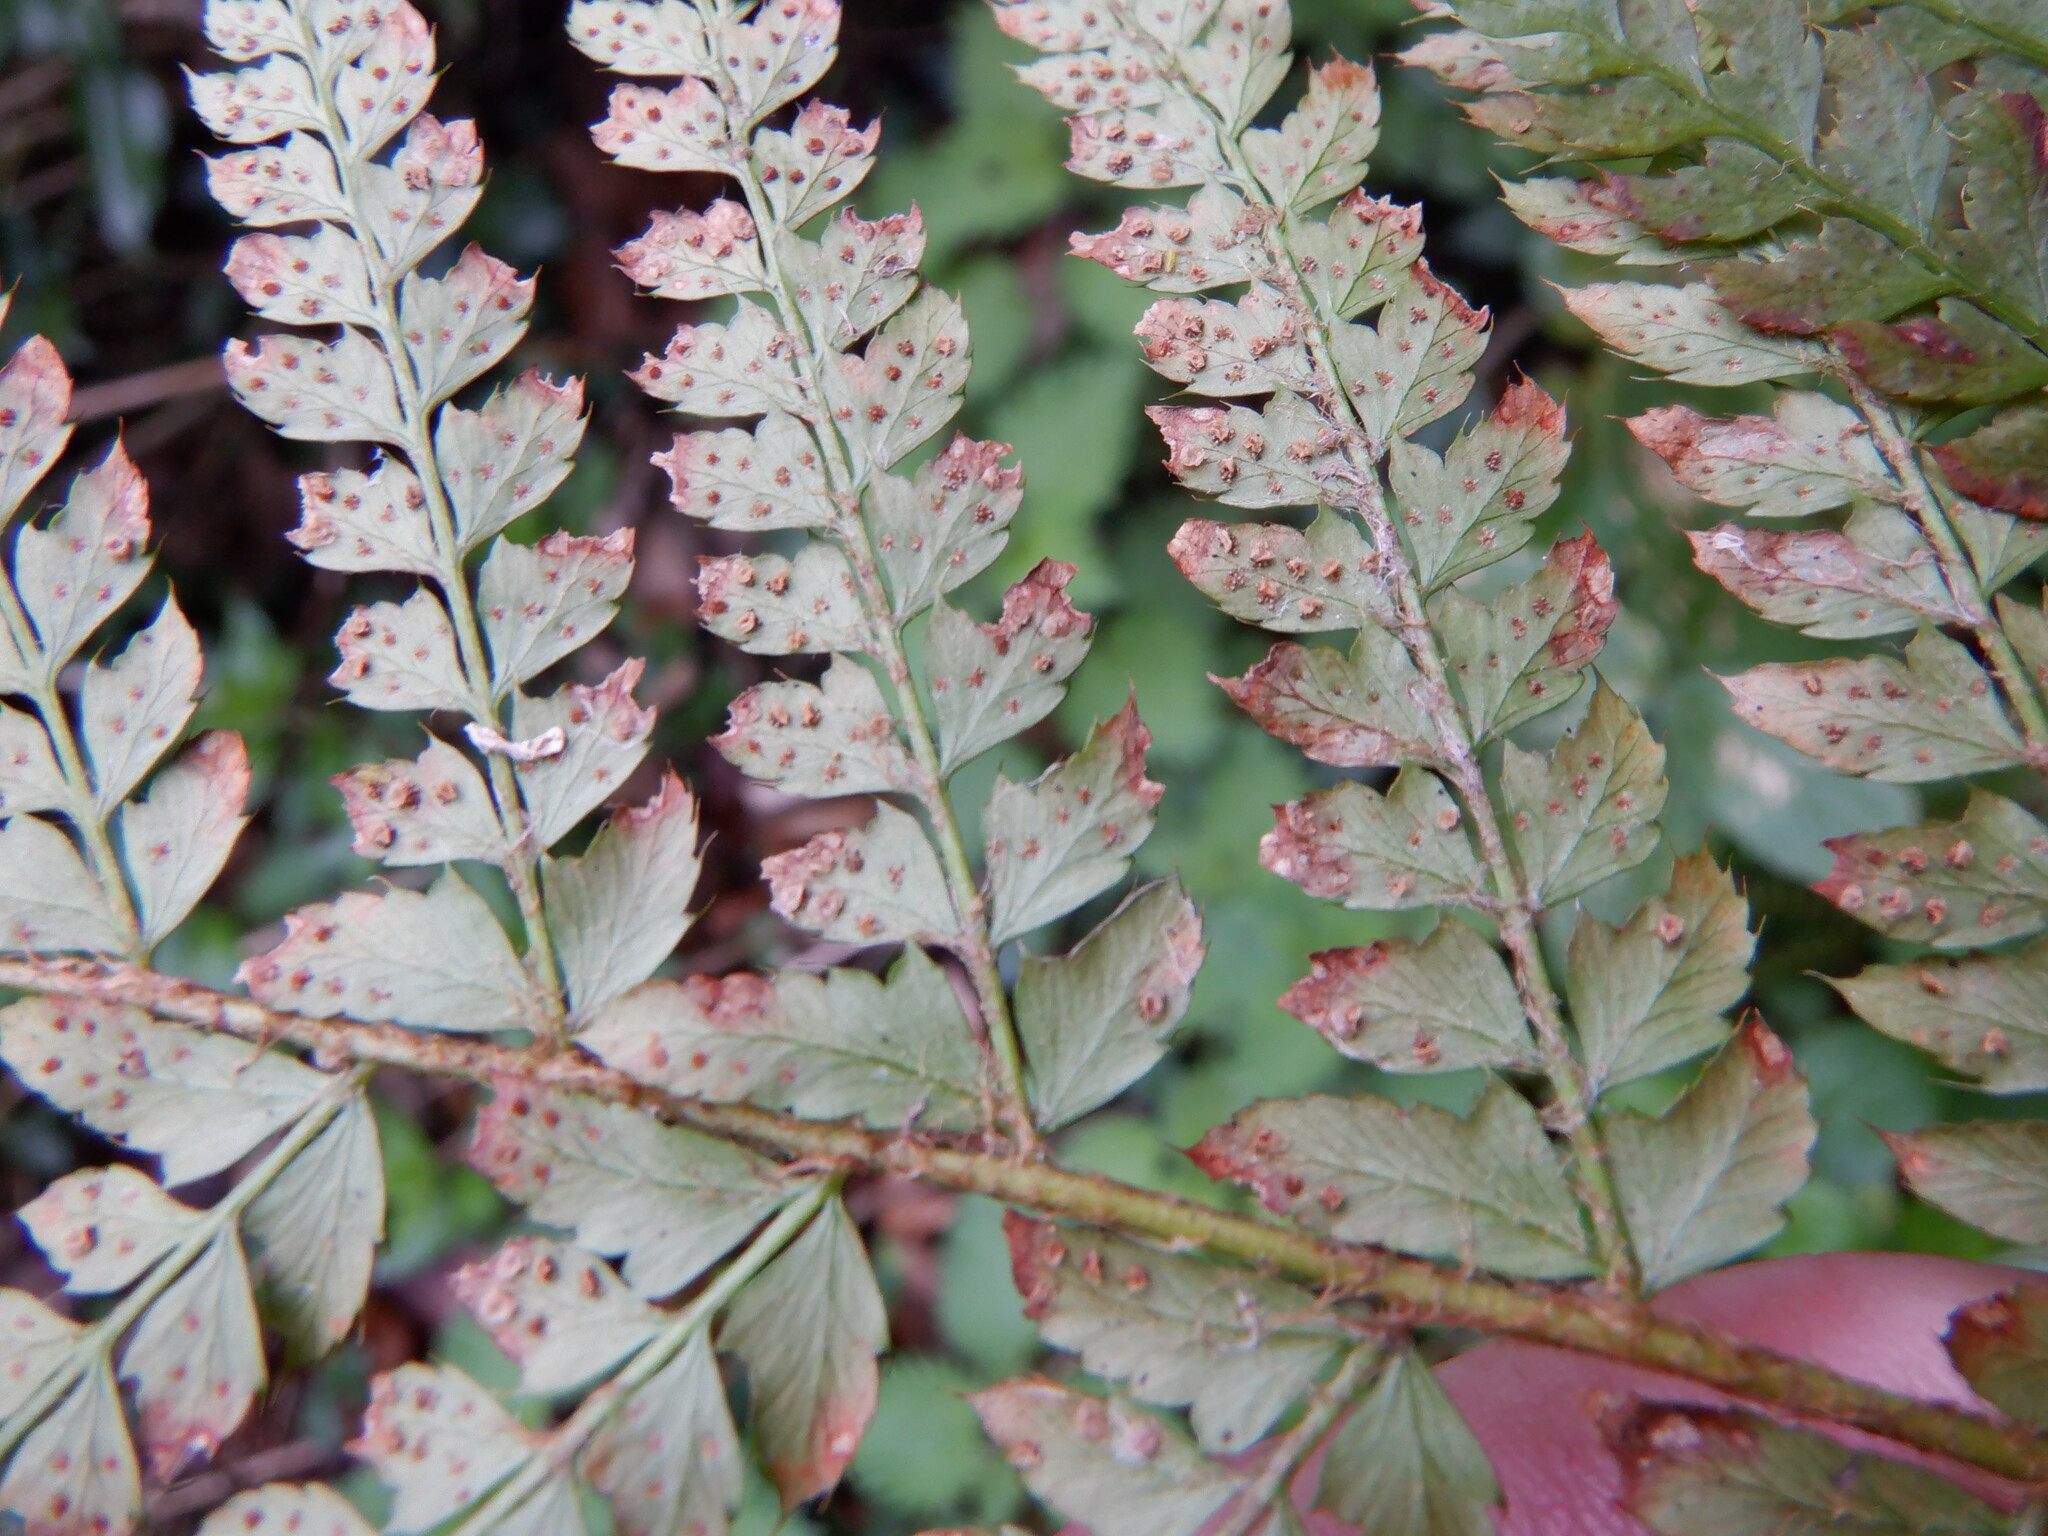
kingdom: Plantae
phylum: Tracheophyta
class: Polypodiopsida
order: Polypodiales
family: Dryopteridaceae
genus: Polystichum
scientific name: Polystichum setiferum
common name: Soft shield-fern
